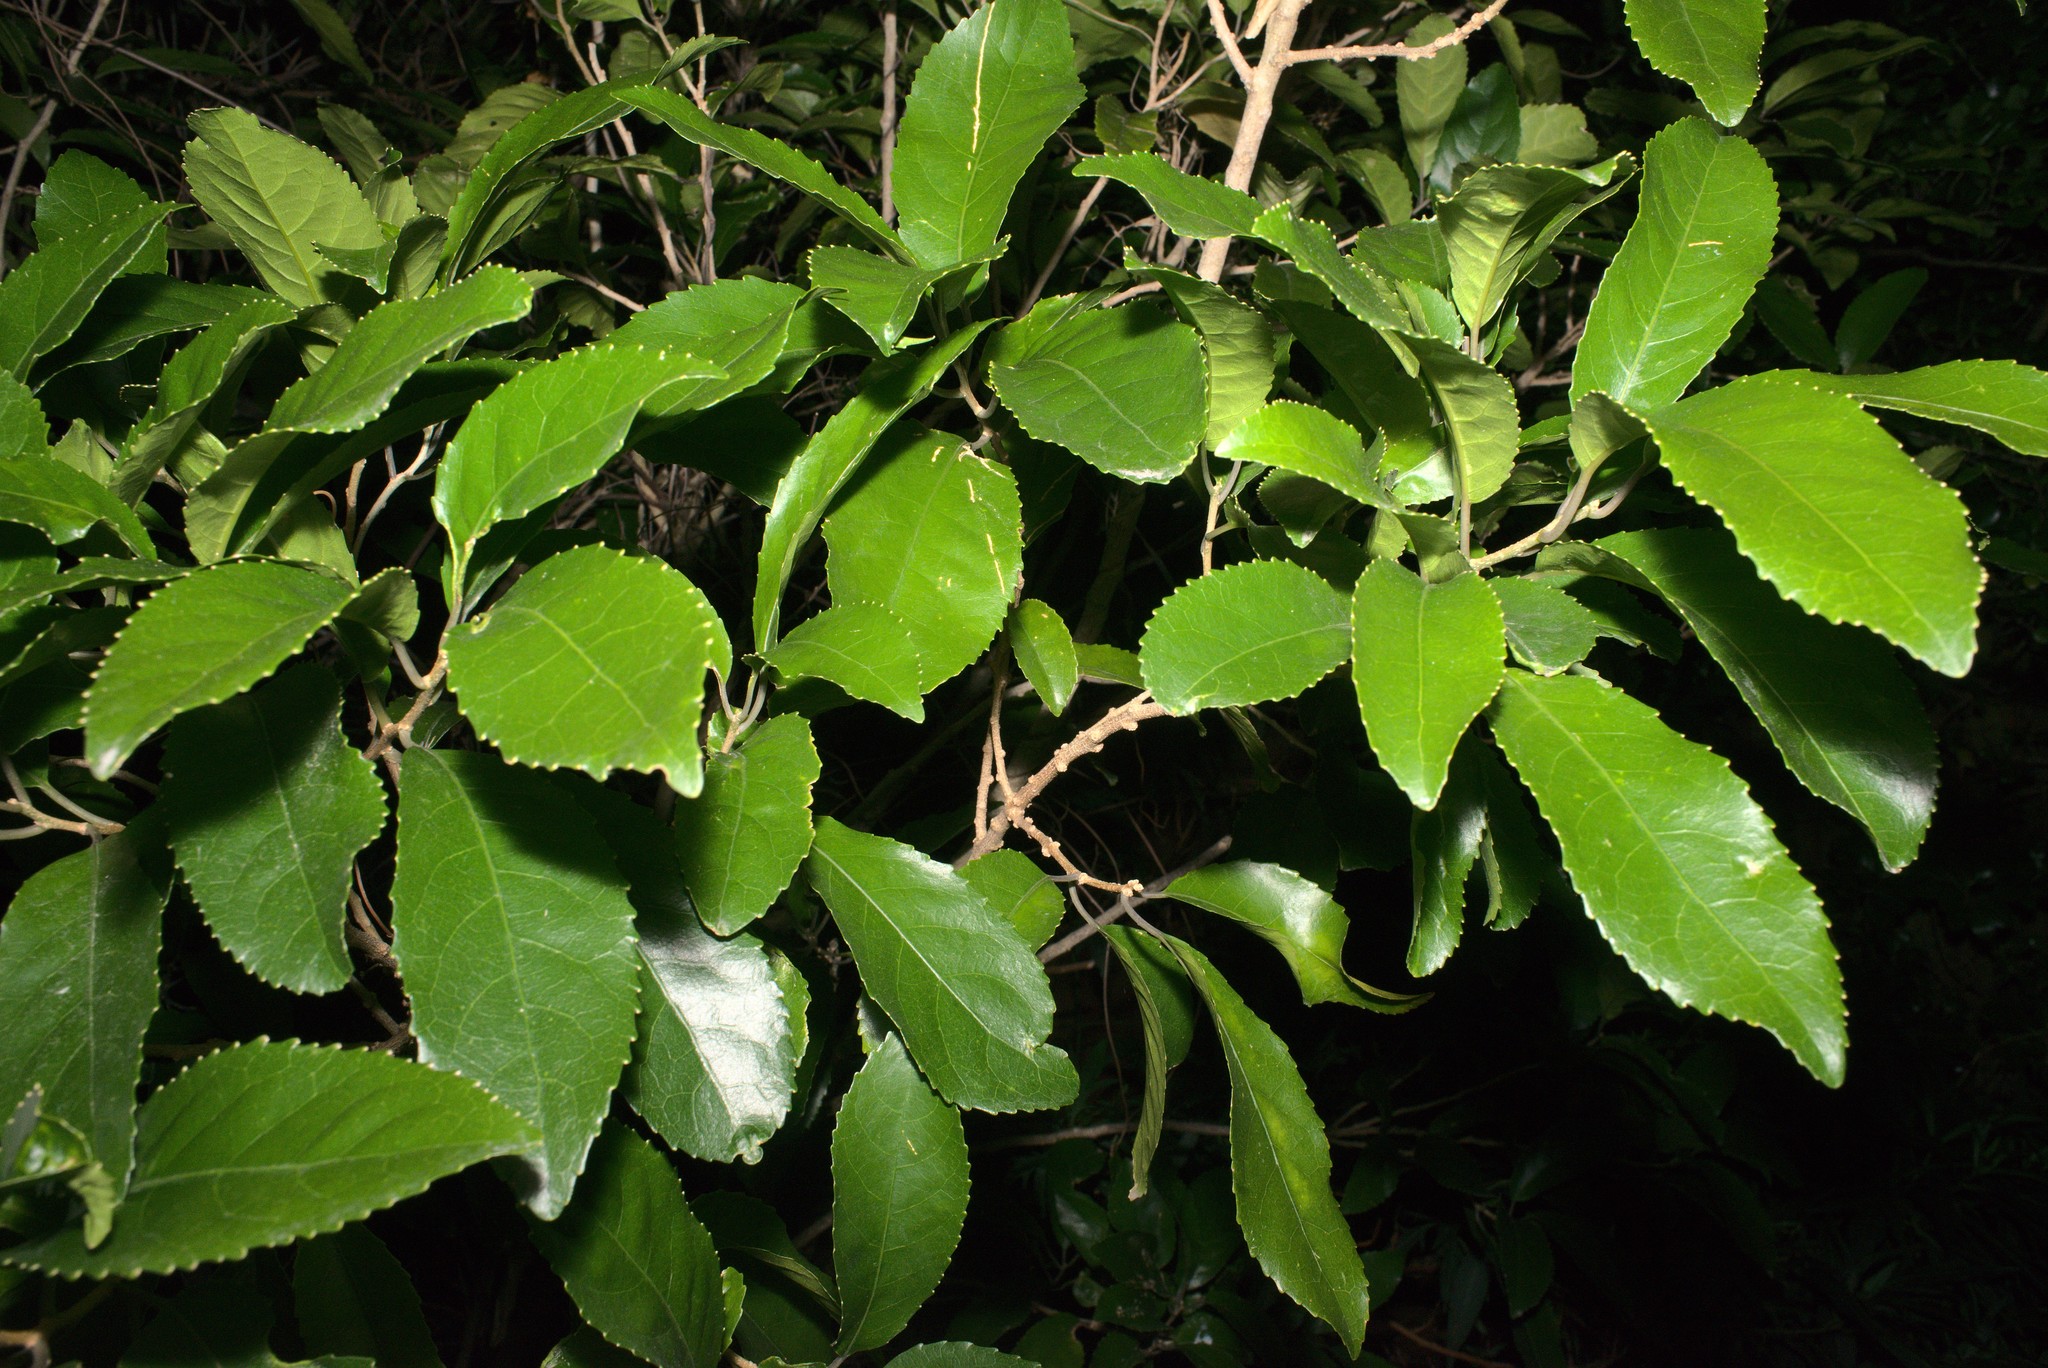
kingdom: Plantae
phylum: Tracheophyta
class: Magnoliopsida
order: Malpighiales
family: Violaceae
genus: Melicytus
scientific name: Melicytus ramiflorus
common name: Mahoe
